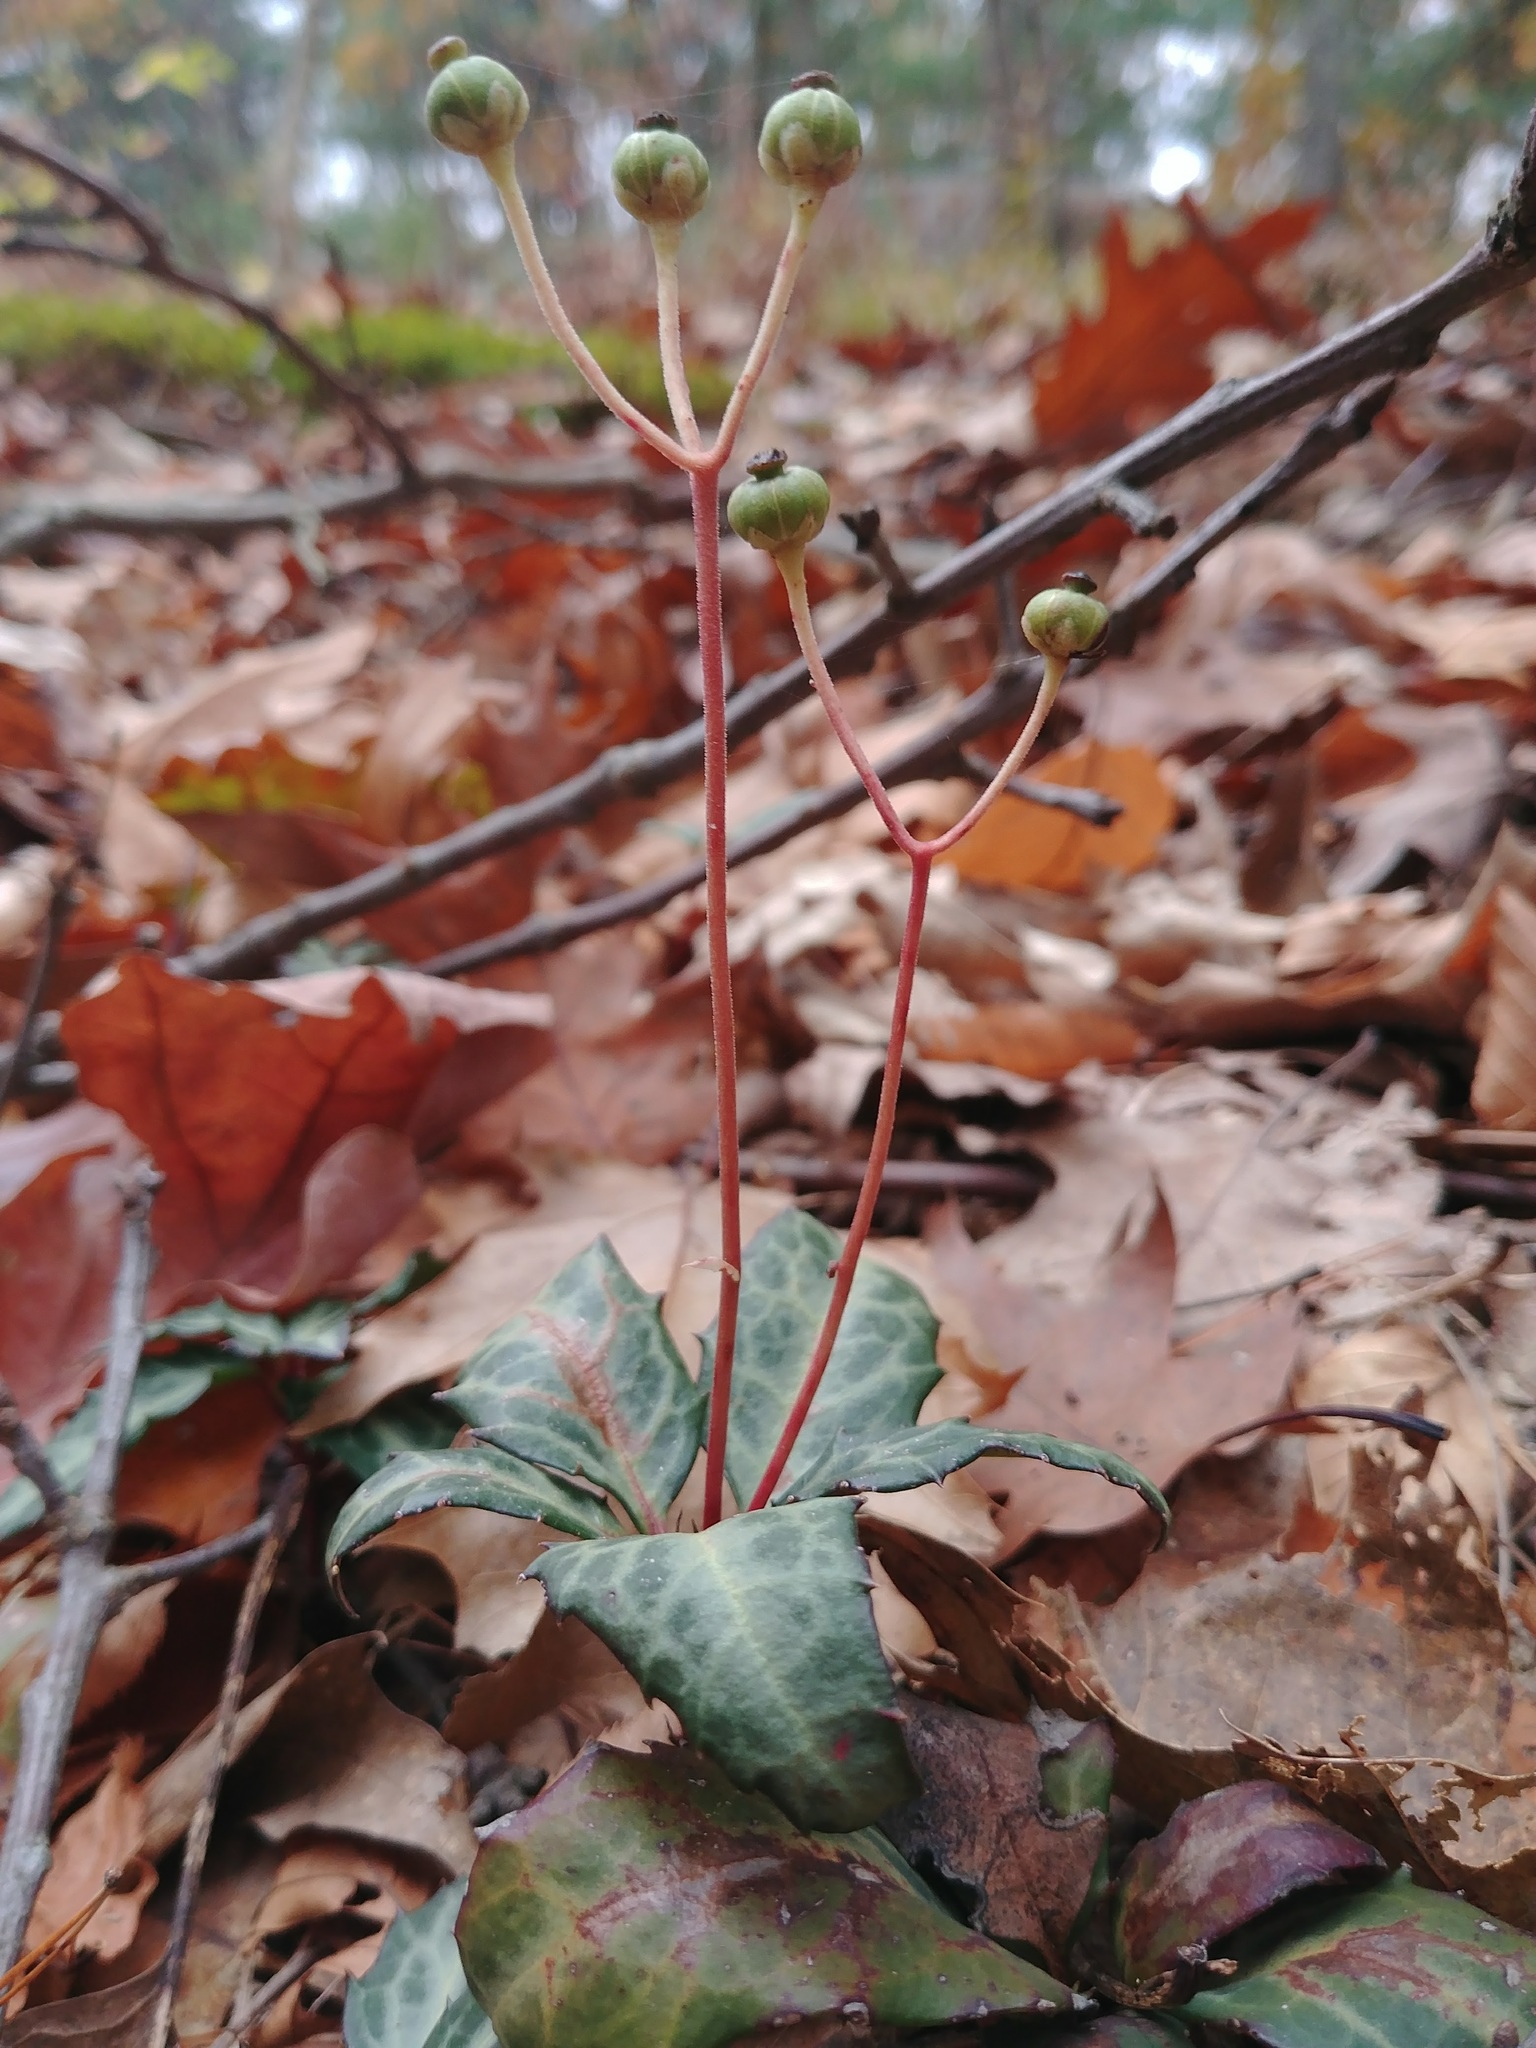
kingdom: Plantae
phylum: Tracheophyta
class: Magnoliopsida
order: Ericales
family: Ericaceae
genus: Chimaphila
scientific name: Chimaphila maculata
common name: Spotted pipsissewa
